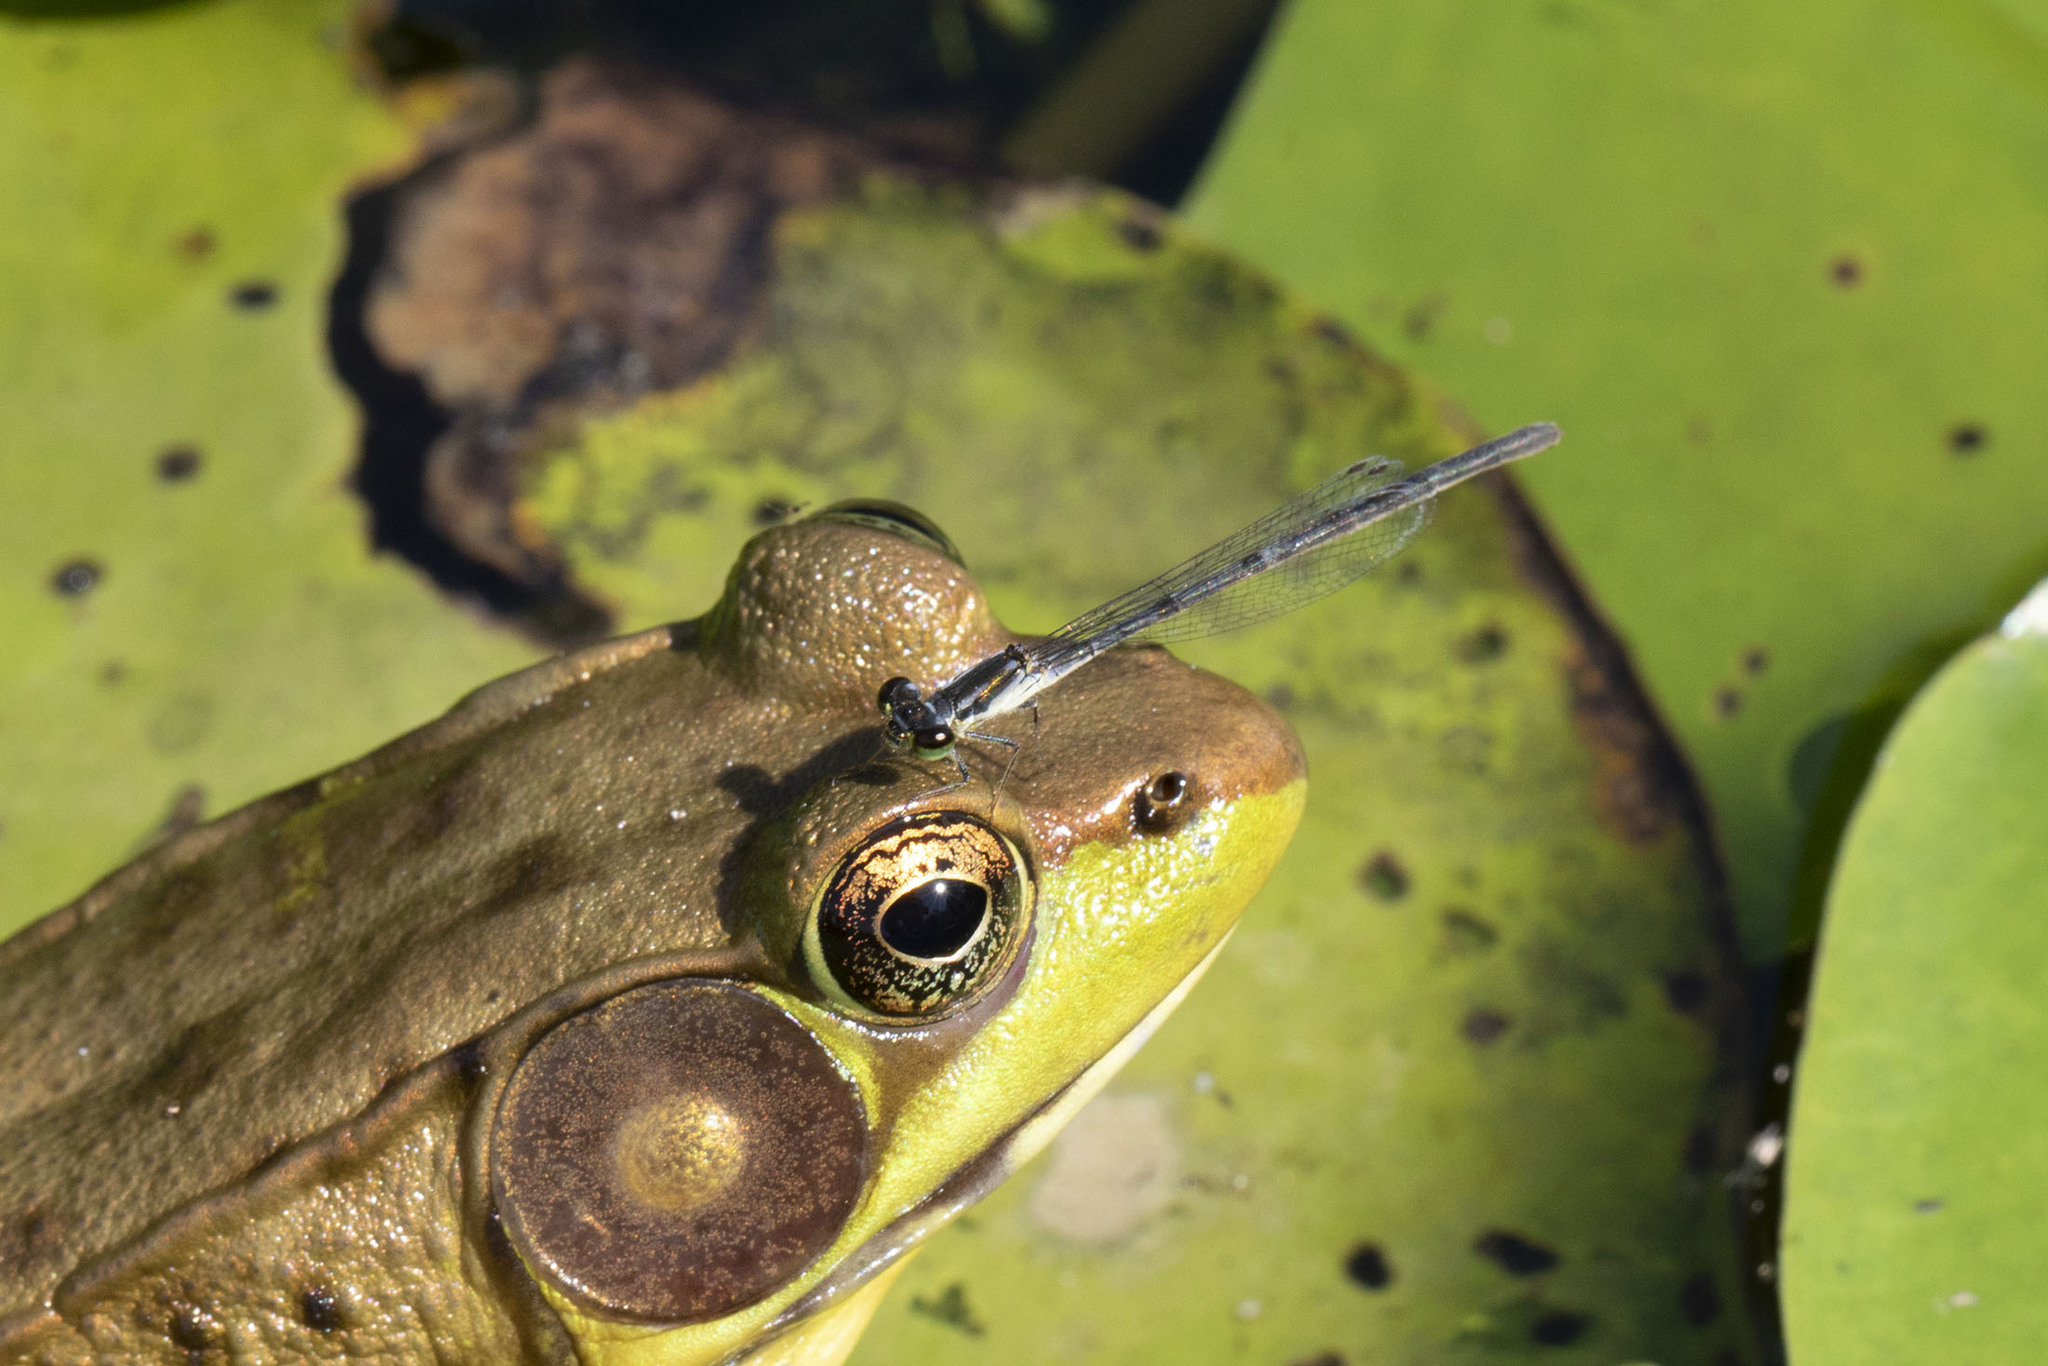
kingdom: Animalia
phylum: Arthropoda
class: Insecta
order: Odonata
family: Coenagrionidae
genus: Ischnura
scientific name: Ischnura posita
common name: Fragile forktail
